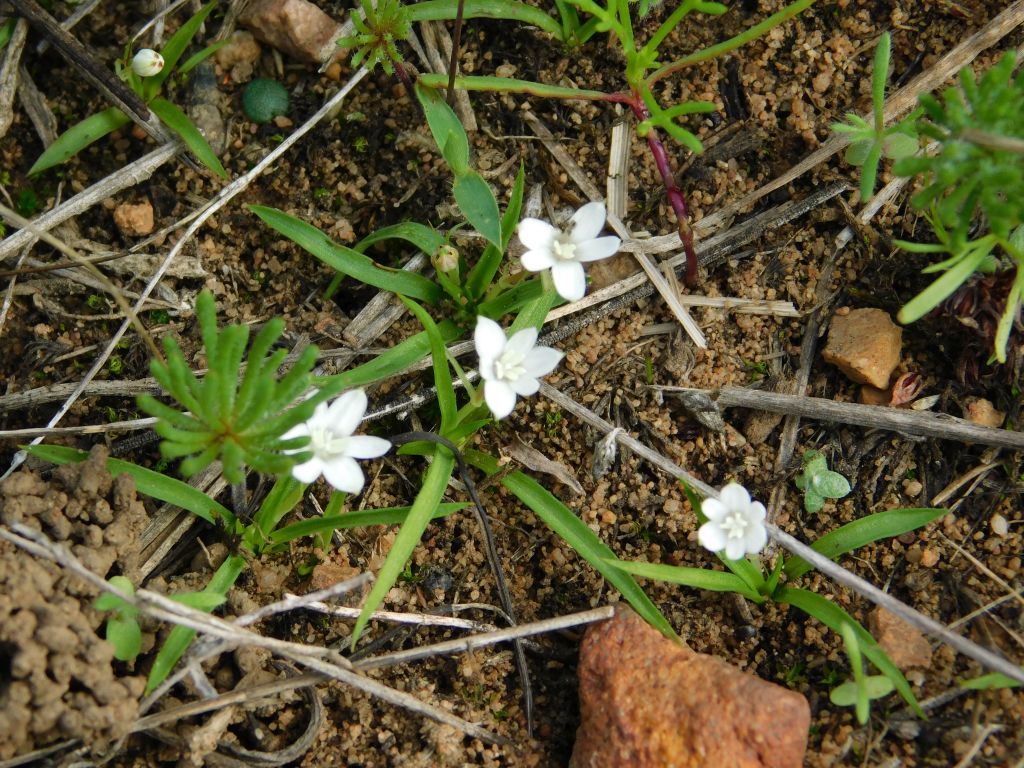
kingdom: Plantae
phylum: Tracheophyta
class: Liliopsida
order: Asparagales
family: Hypoxidaceae
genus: Pauridia
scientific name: Pauridia minuta
